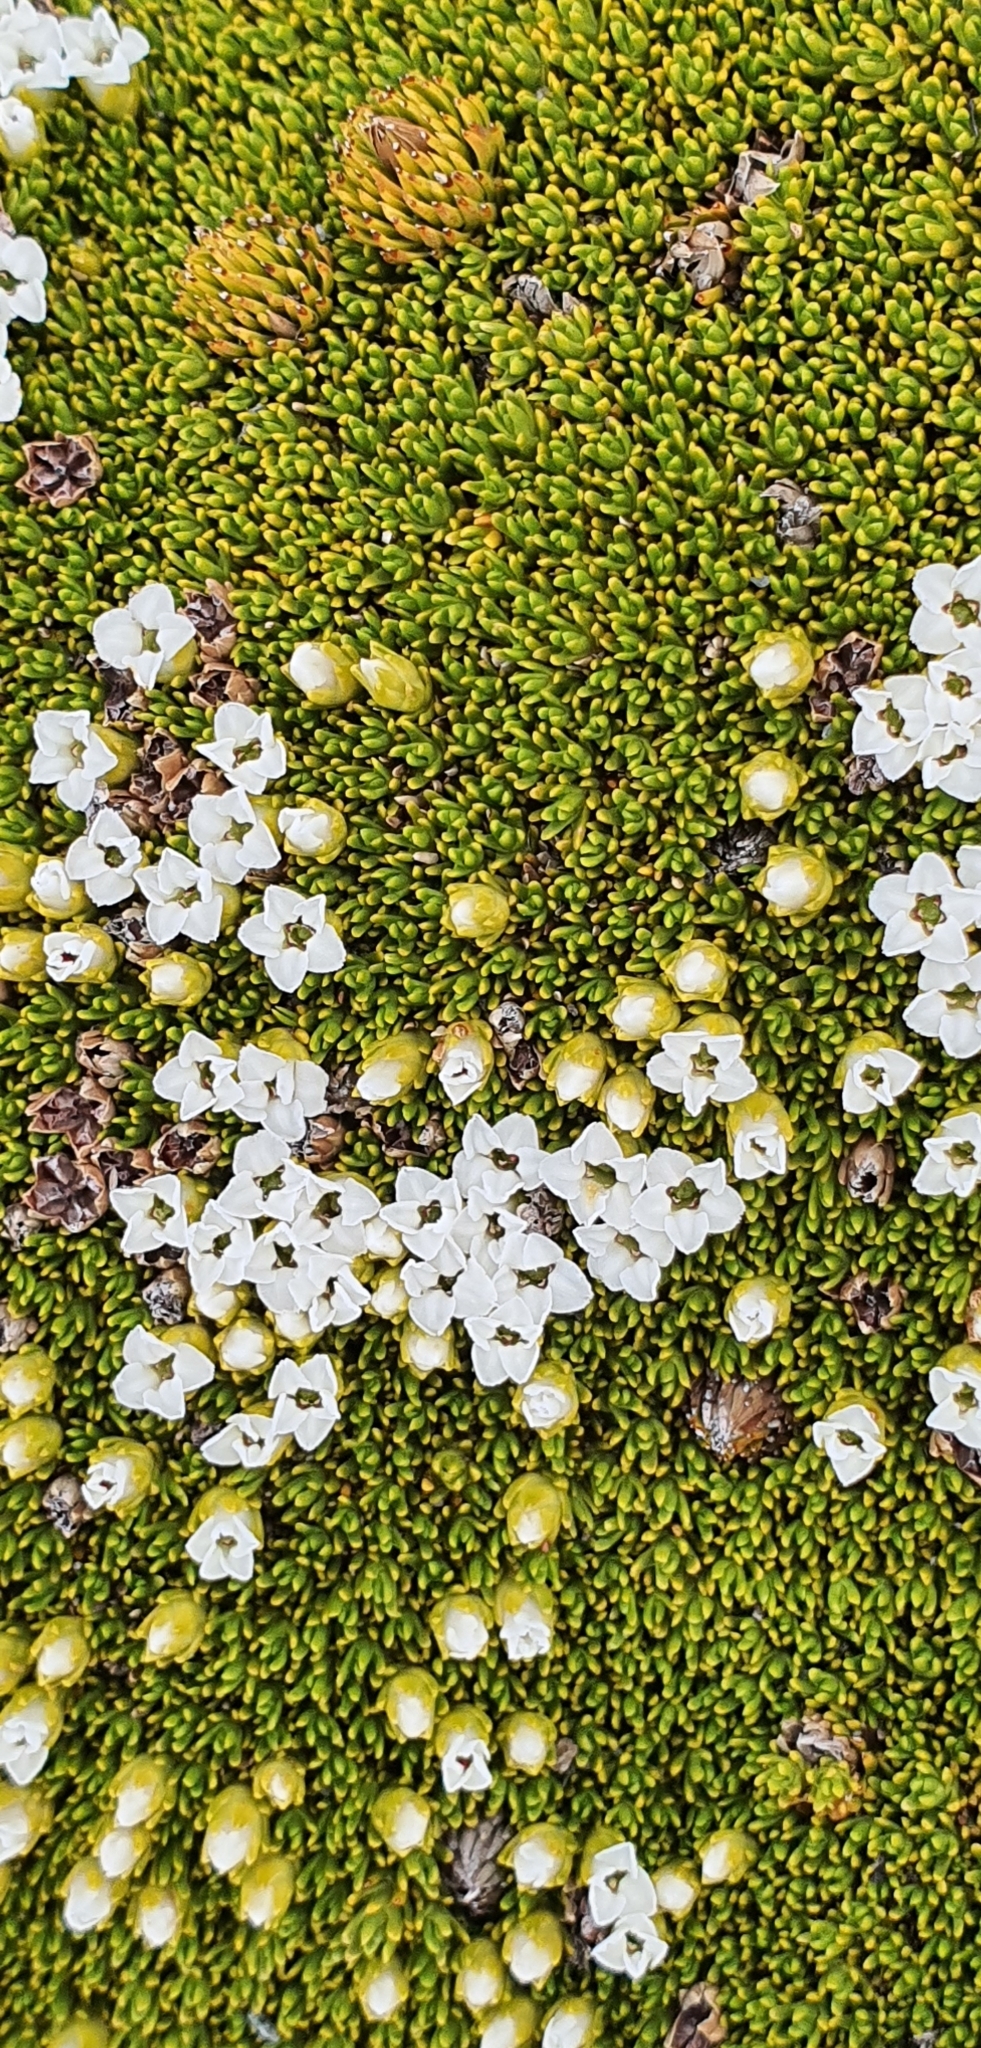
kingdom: Plantae
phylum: Tracheophyta
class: Magnoliopsida
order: Ericales
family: Ericaceae
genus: Dracophyllum
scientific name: Dracophyllum muscoides
